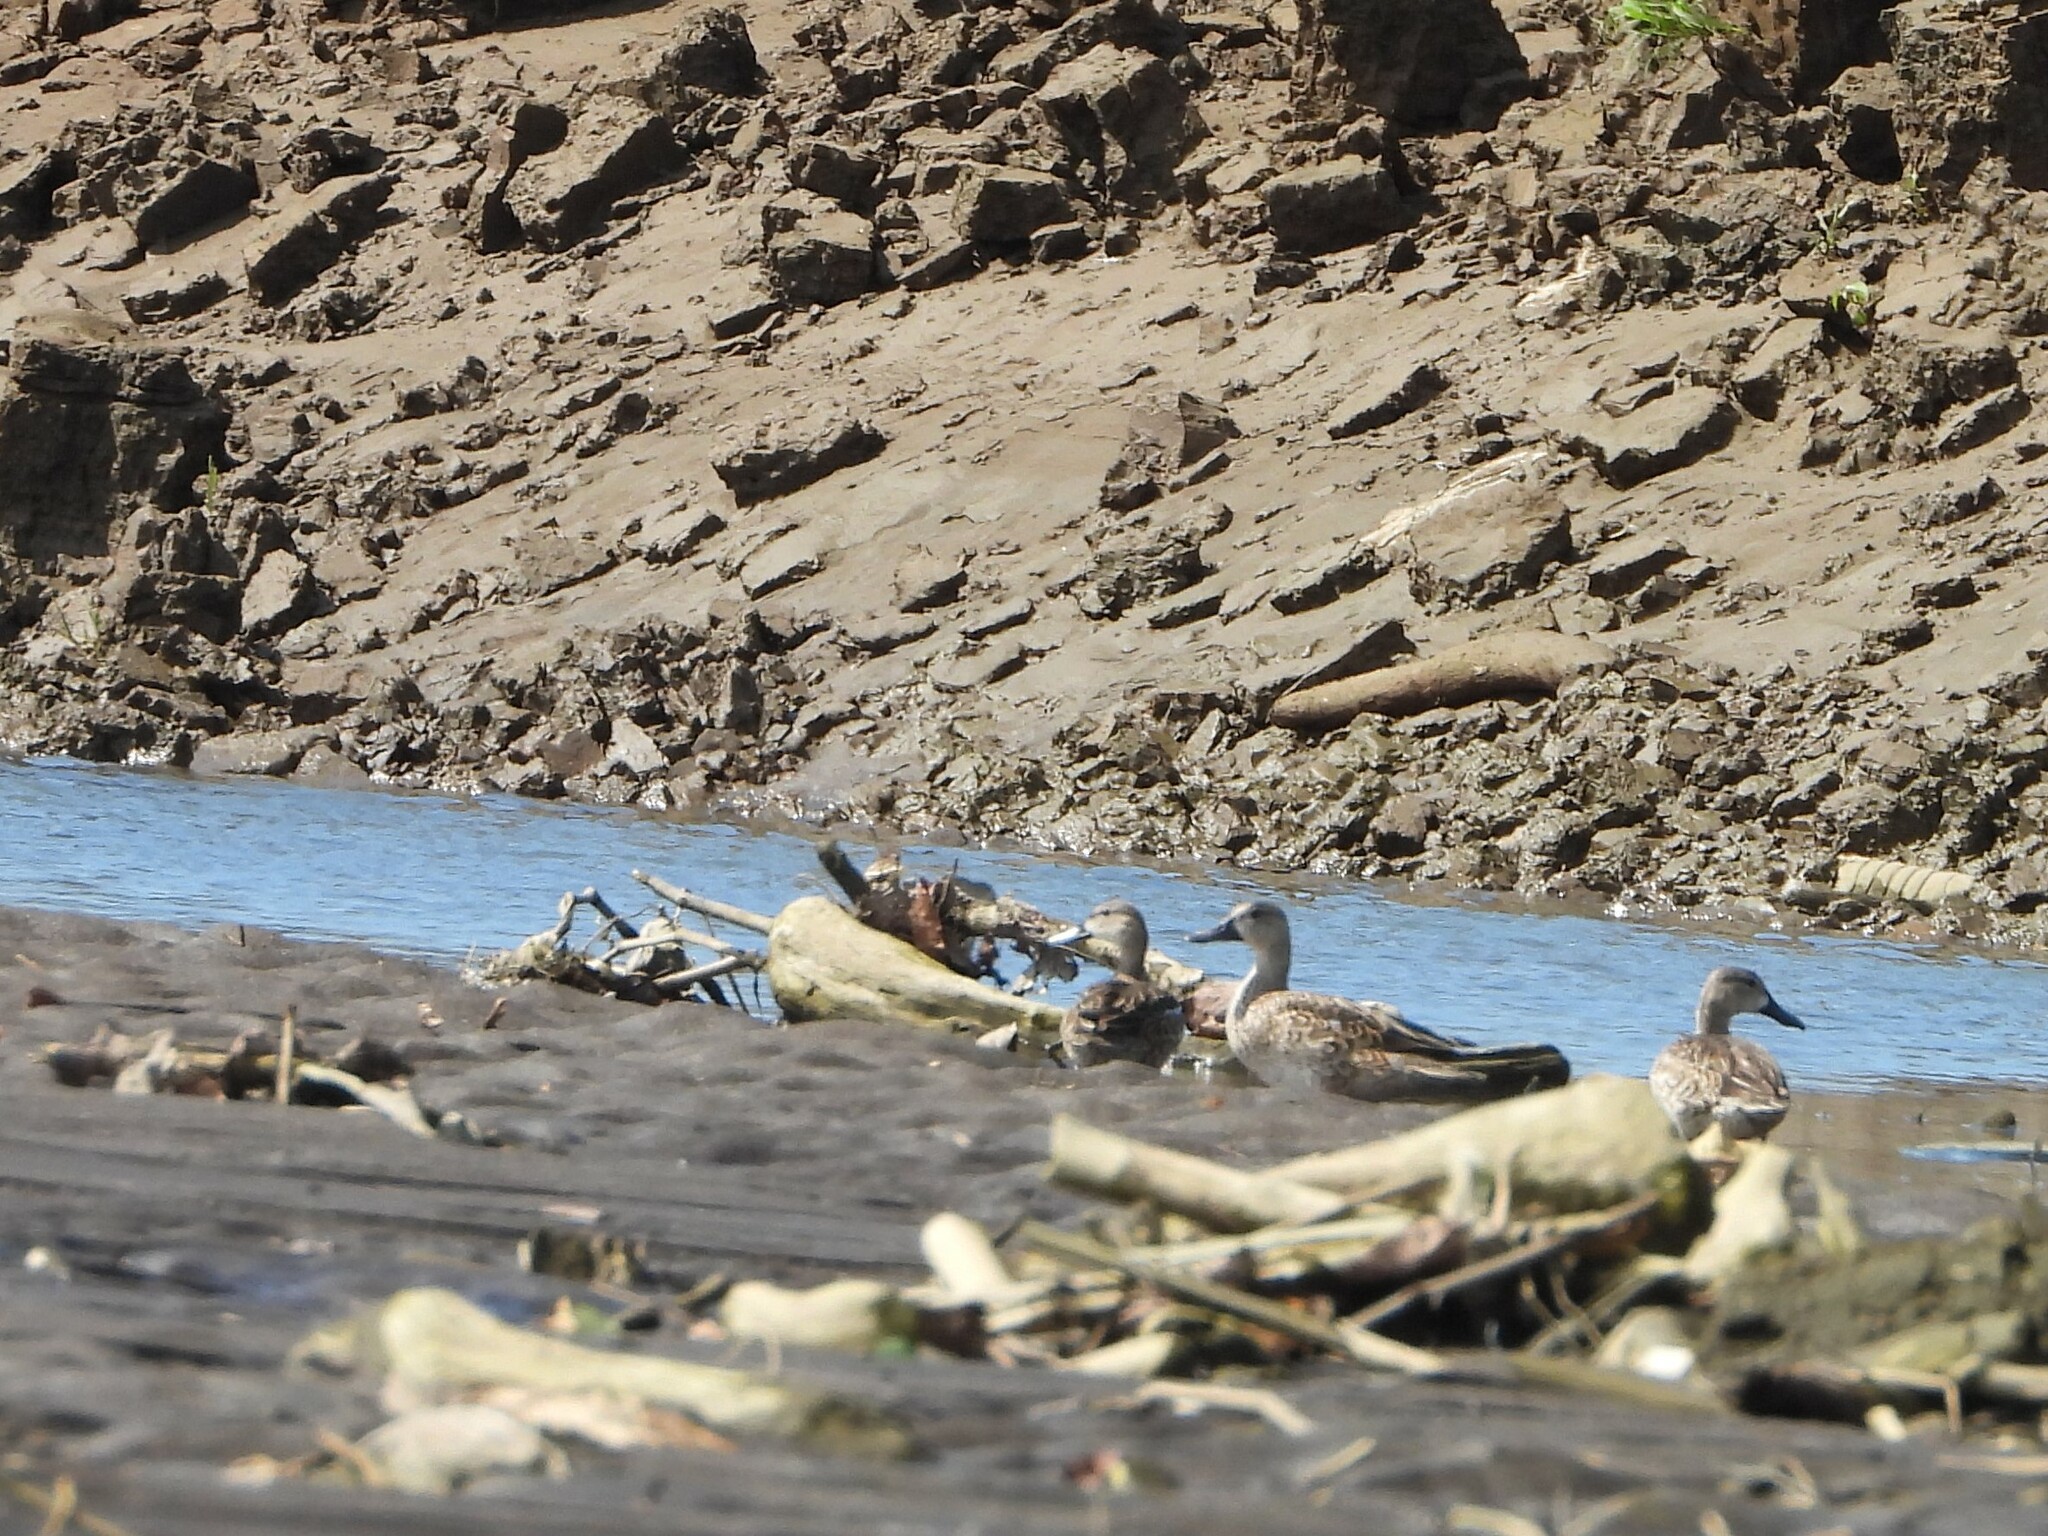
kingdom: Animalia
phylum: Chordata
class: Aves
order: Anseriformes
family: Anatidae
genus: Spatula
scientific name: Spatula discors
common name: Blue-winged teal
